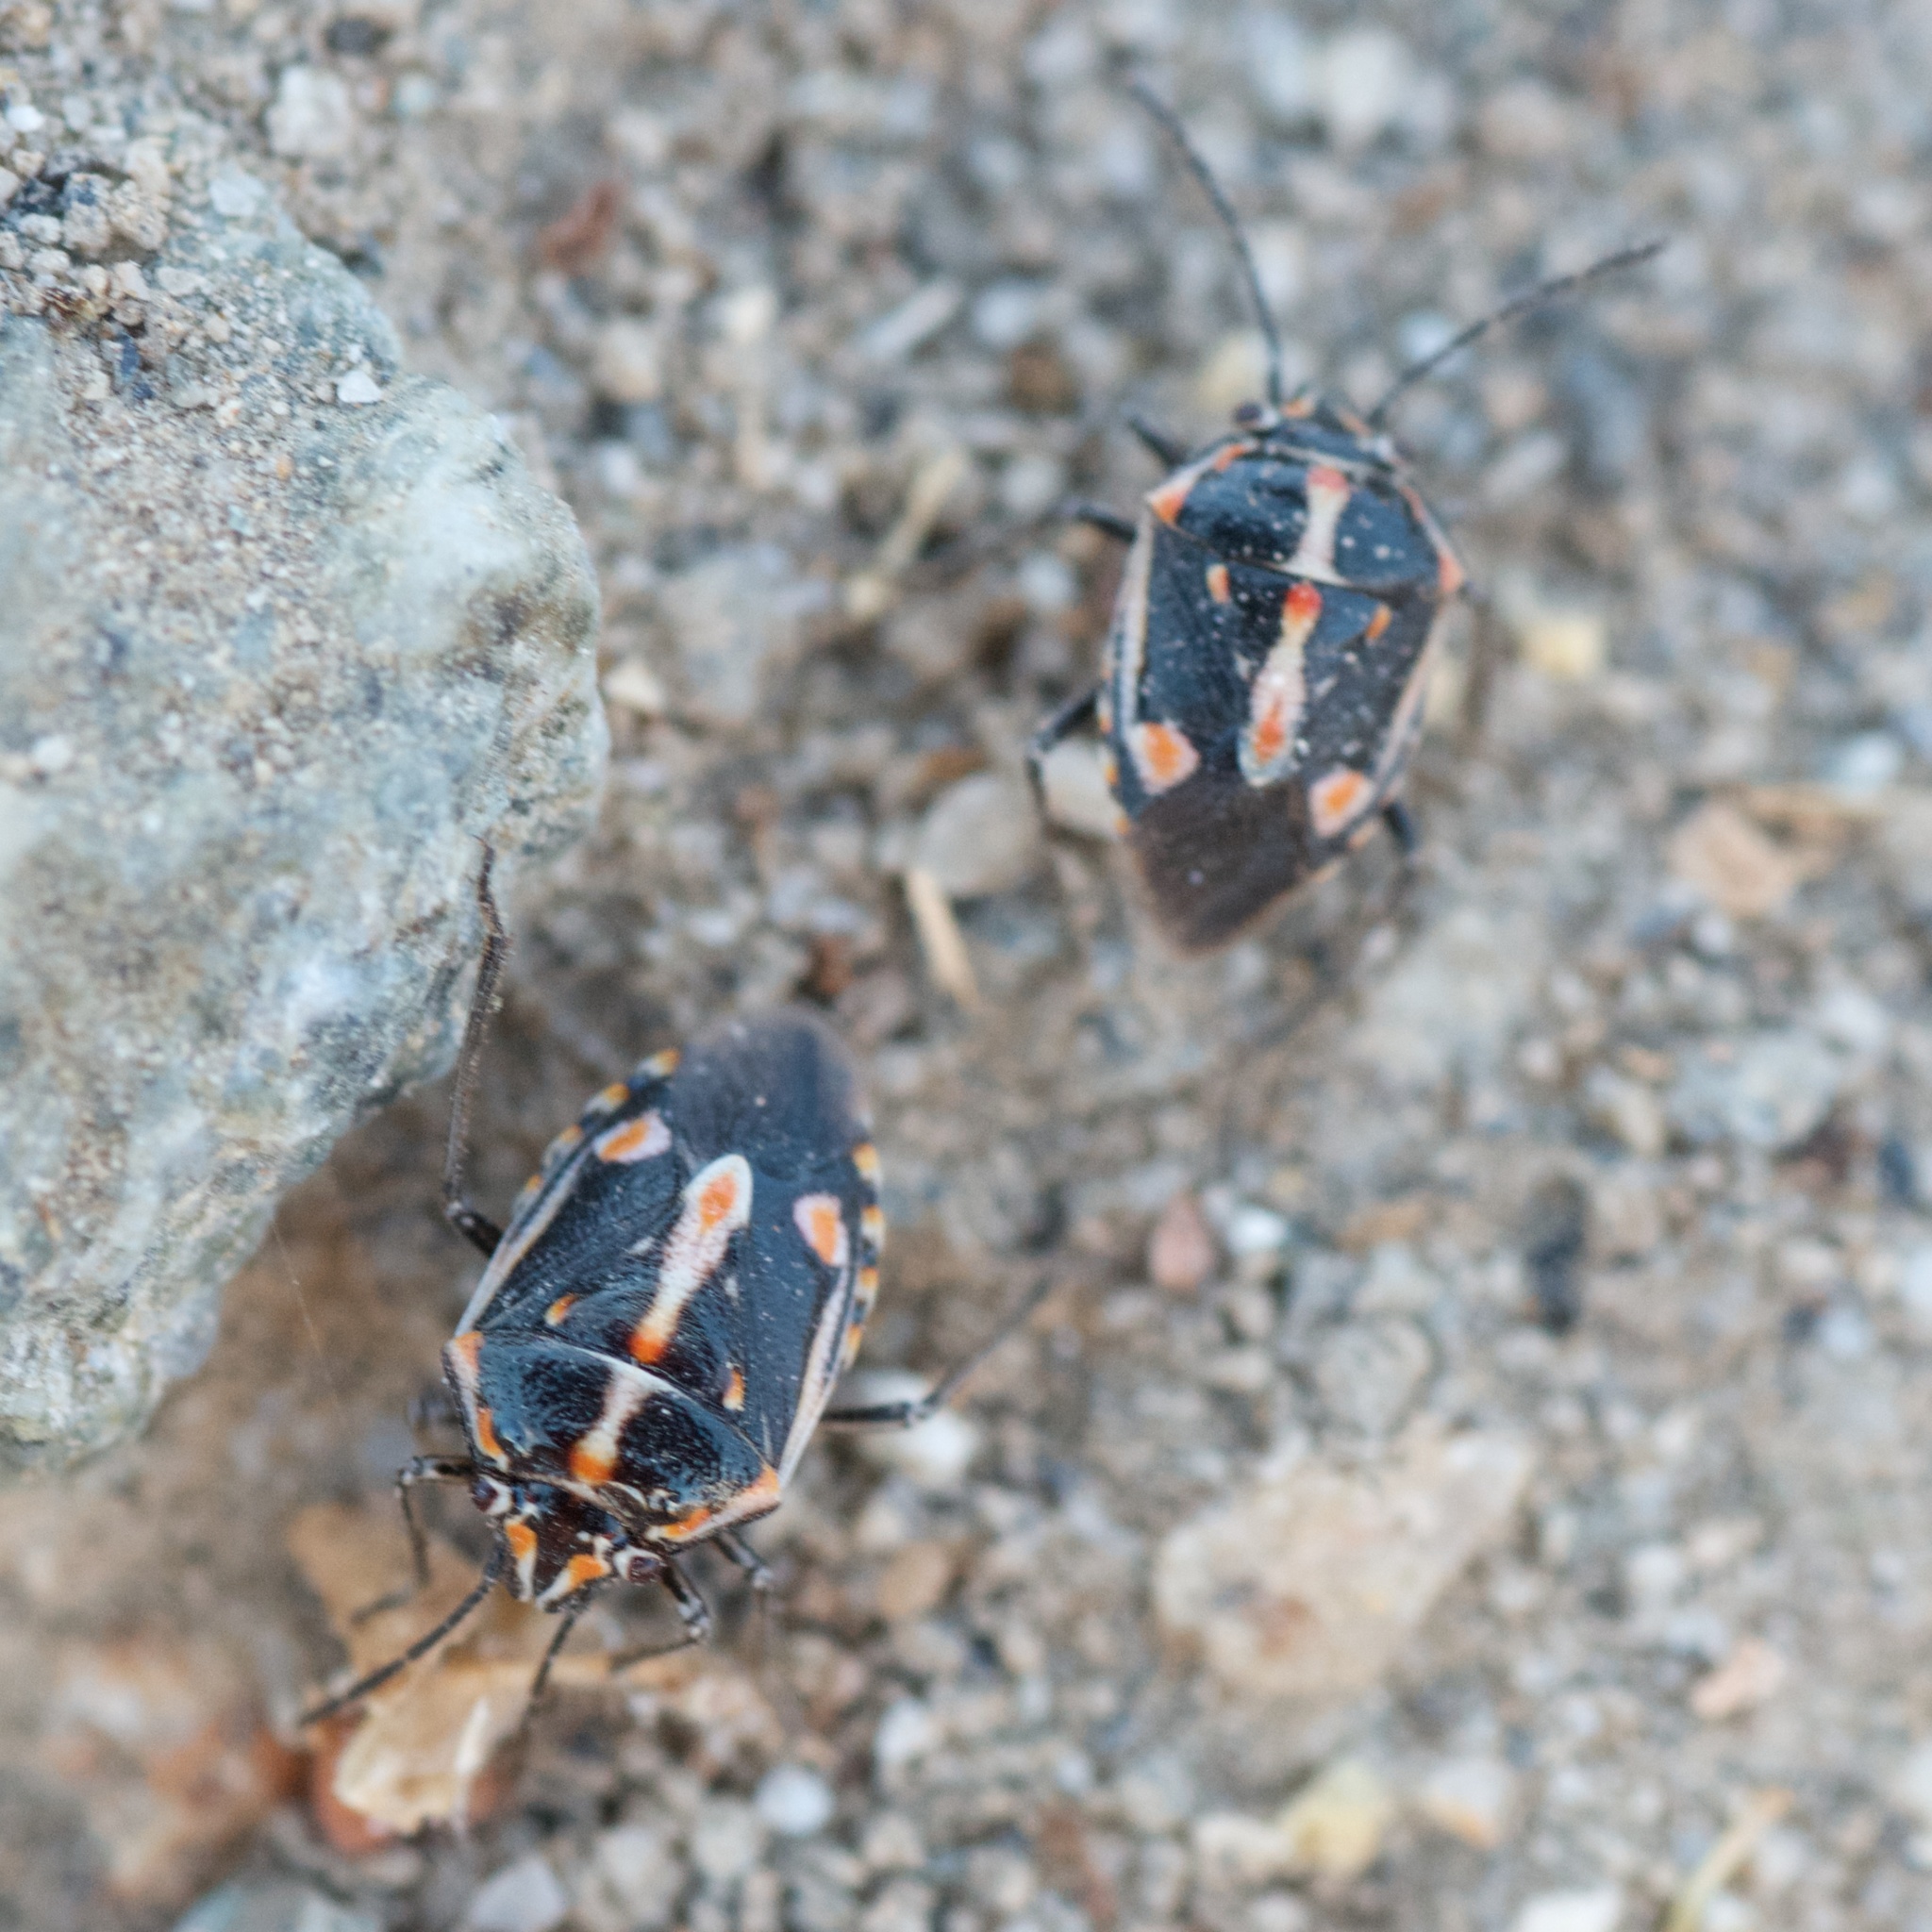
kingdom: Animalia
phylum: Arthropoda
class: Insecta
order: Hemiptera
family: Pentatomidae
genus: Bagrada
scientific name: Bagrada hilaris
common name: Bagrada bug
